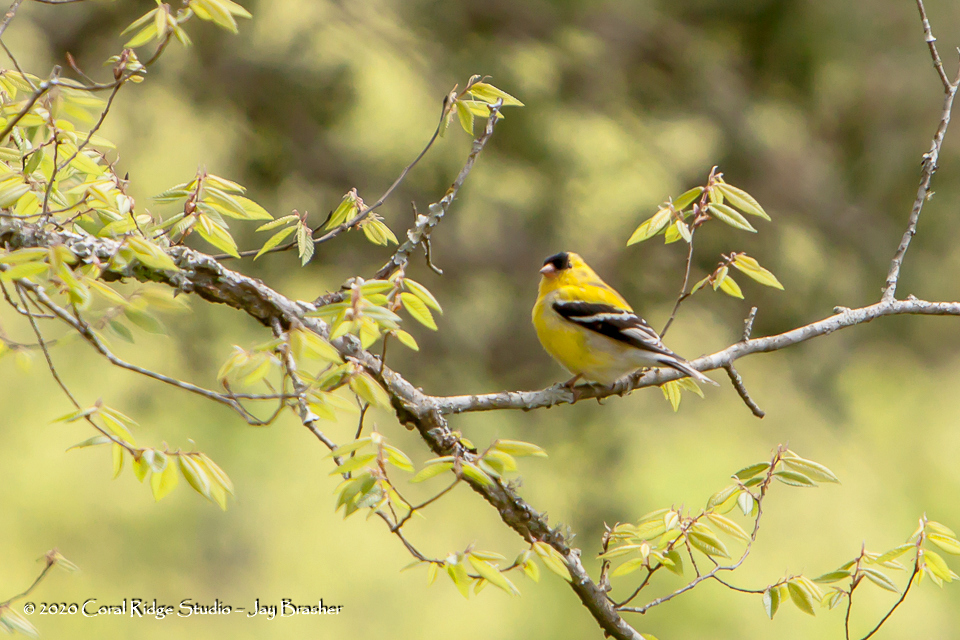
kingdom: Animalia
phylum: Chordata
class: Aves
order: Passeriformes
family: Fringillidae
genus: Spinus
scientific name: Spinus tristis
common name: American goldfinch
